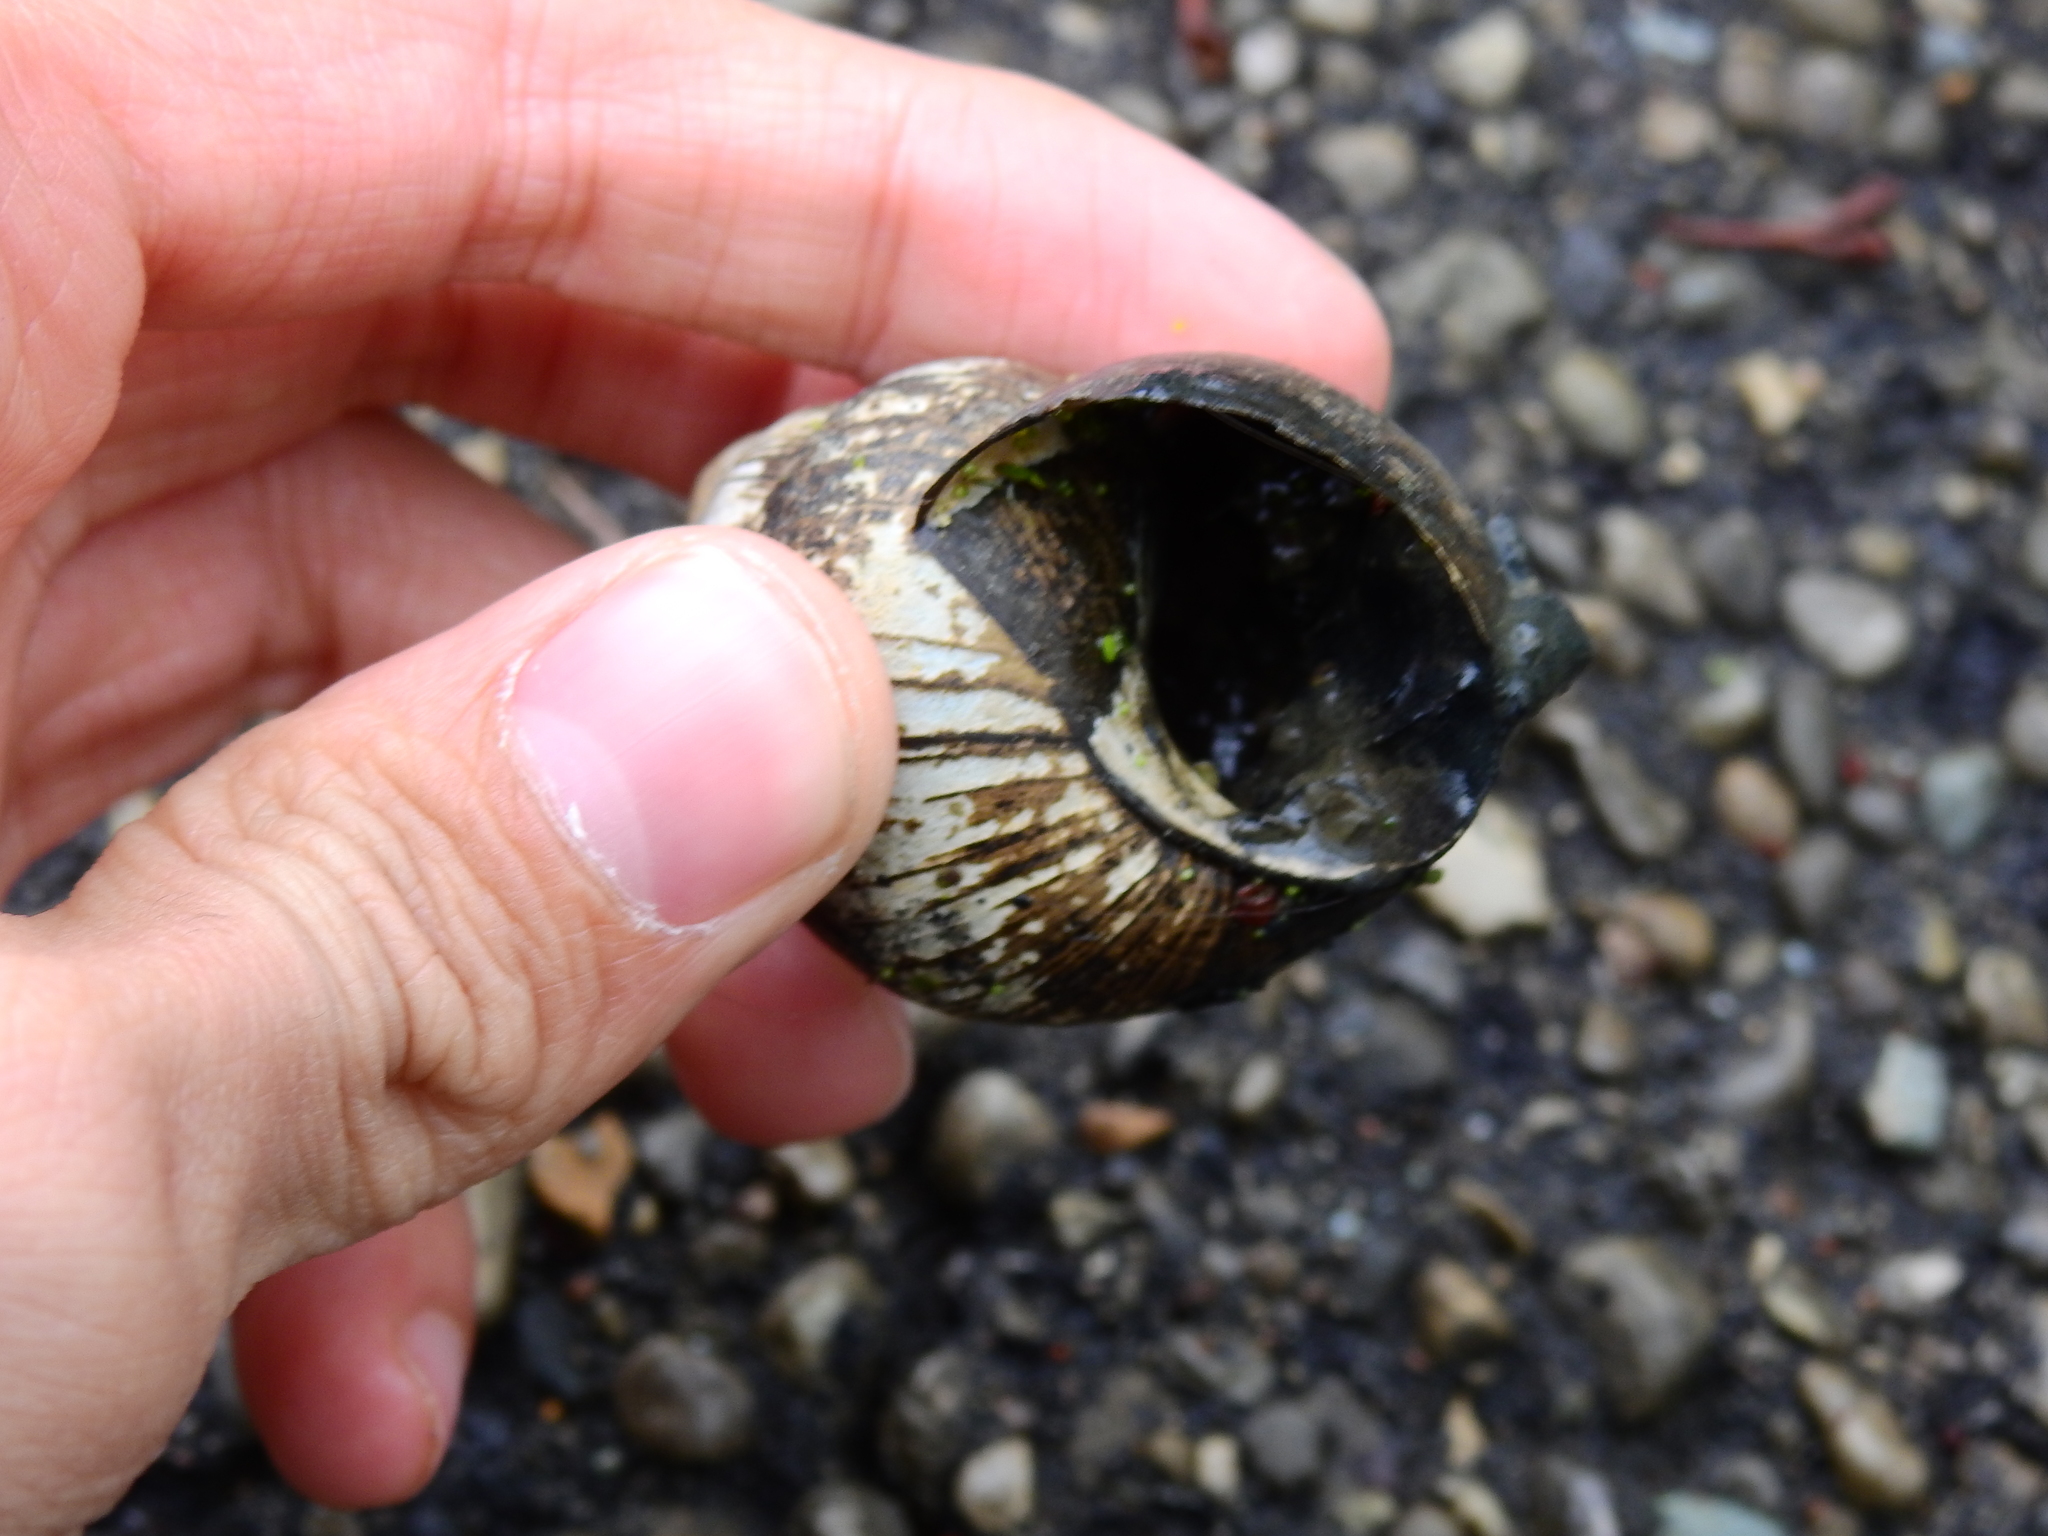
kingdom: Animalia
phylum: Mollusca
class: Gastropoda
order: Architaenioglossa
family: Viviparidae
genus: Cipangopaludina
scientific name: Cipangopaludina chinensis
